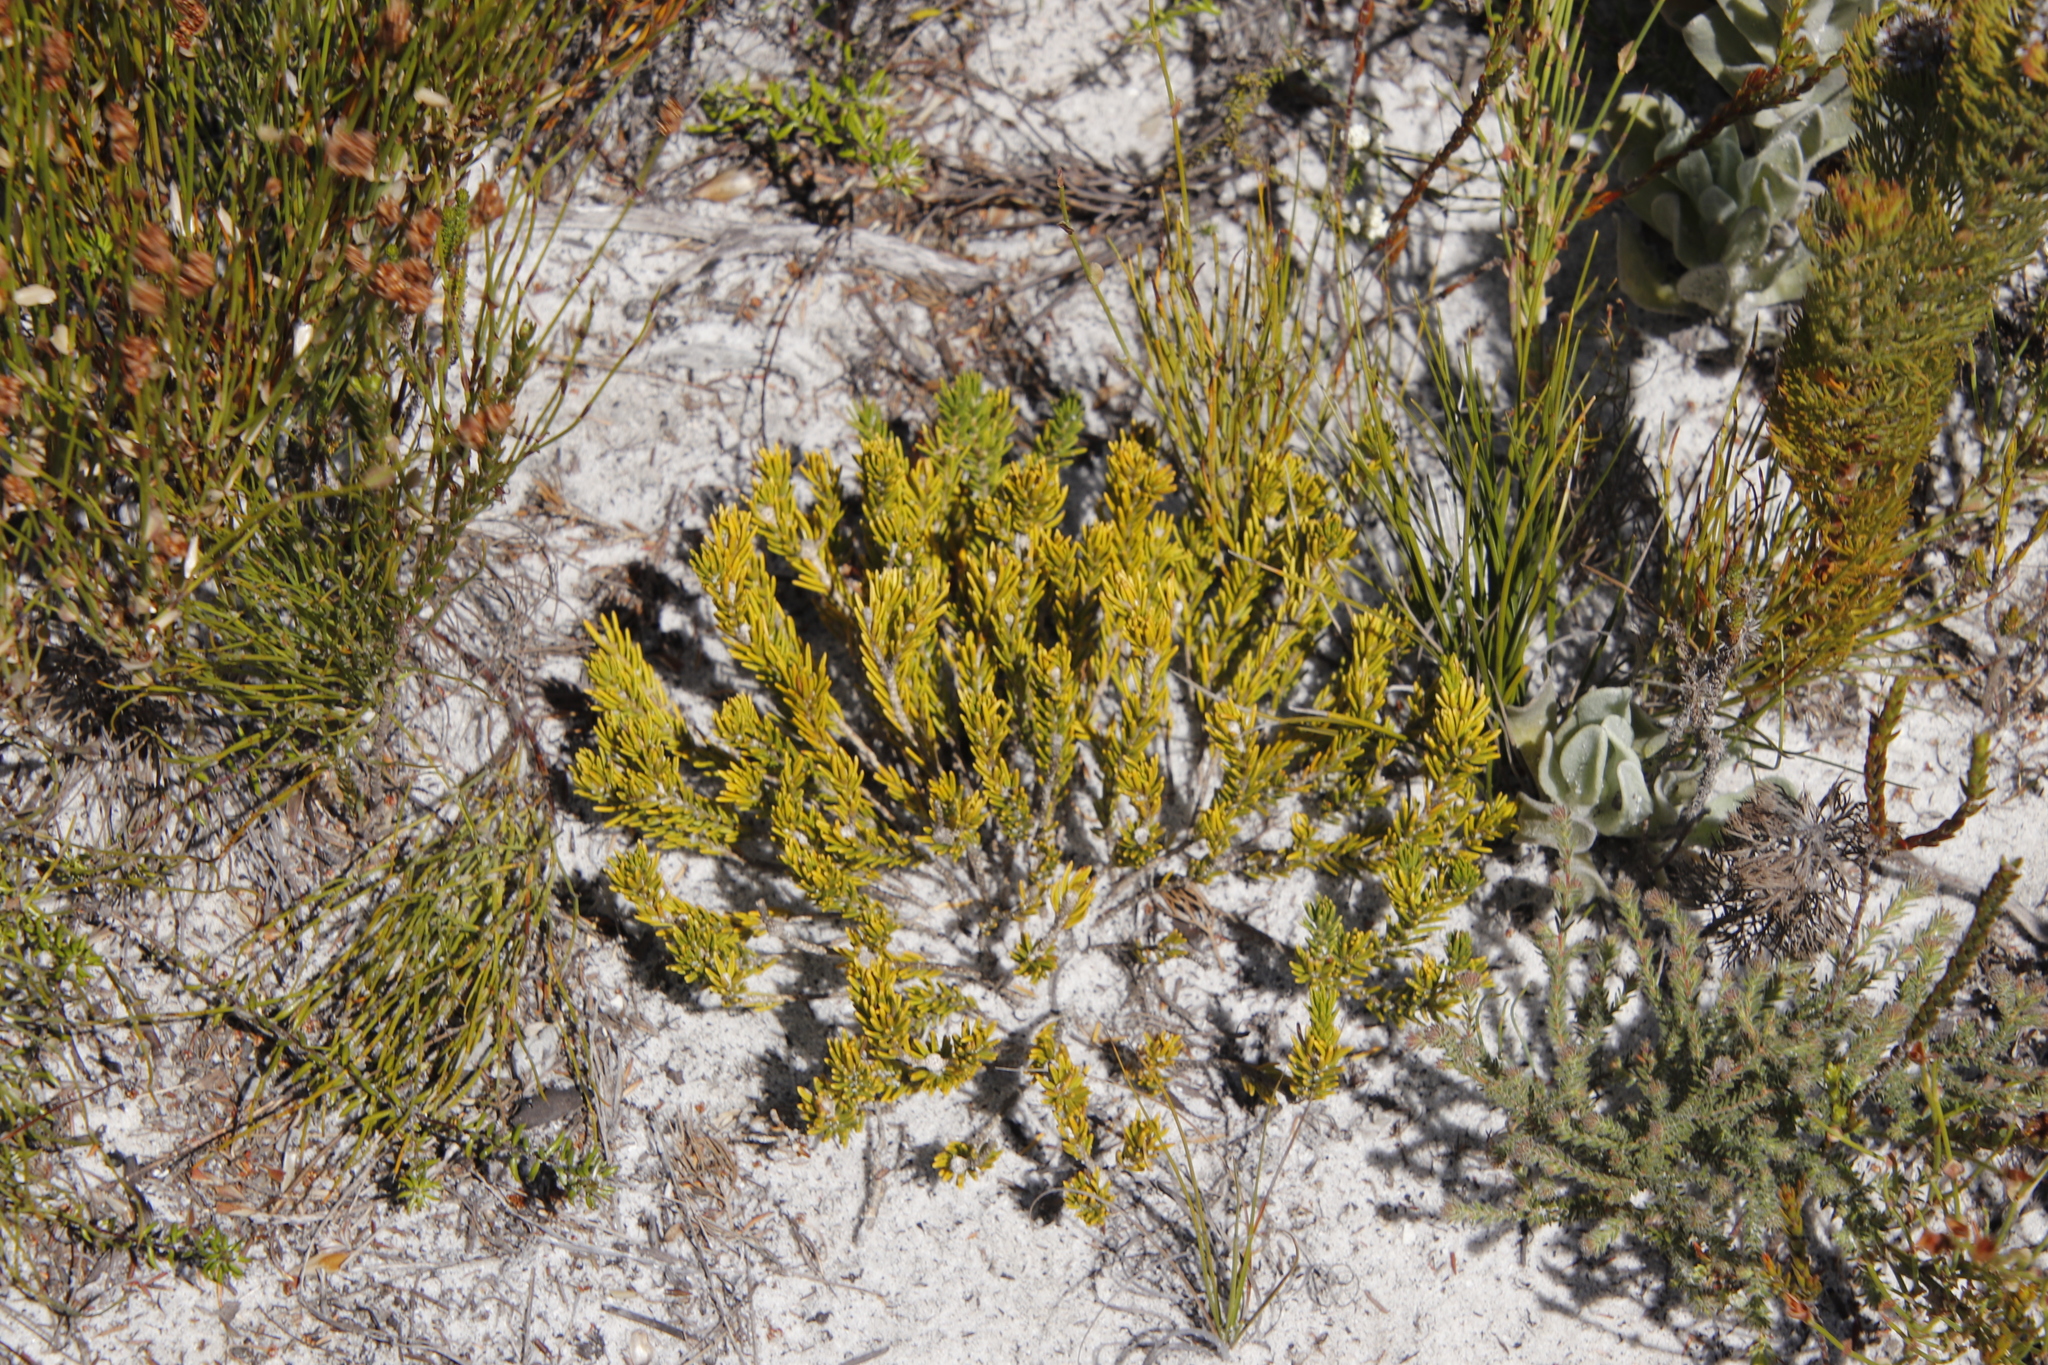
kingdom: Plantae
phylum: Tracheophyta
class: Magnoliopsida
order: Santalales
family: Thesiaceae
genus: Thesium
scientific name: Thesium ericiifolium
